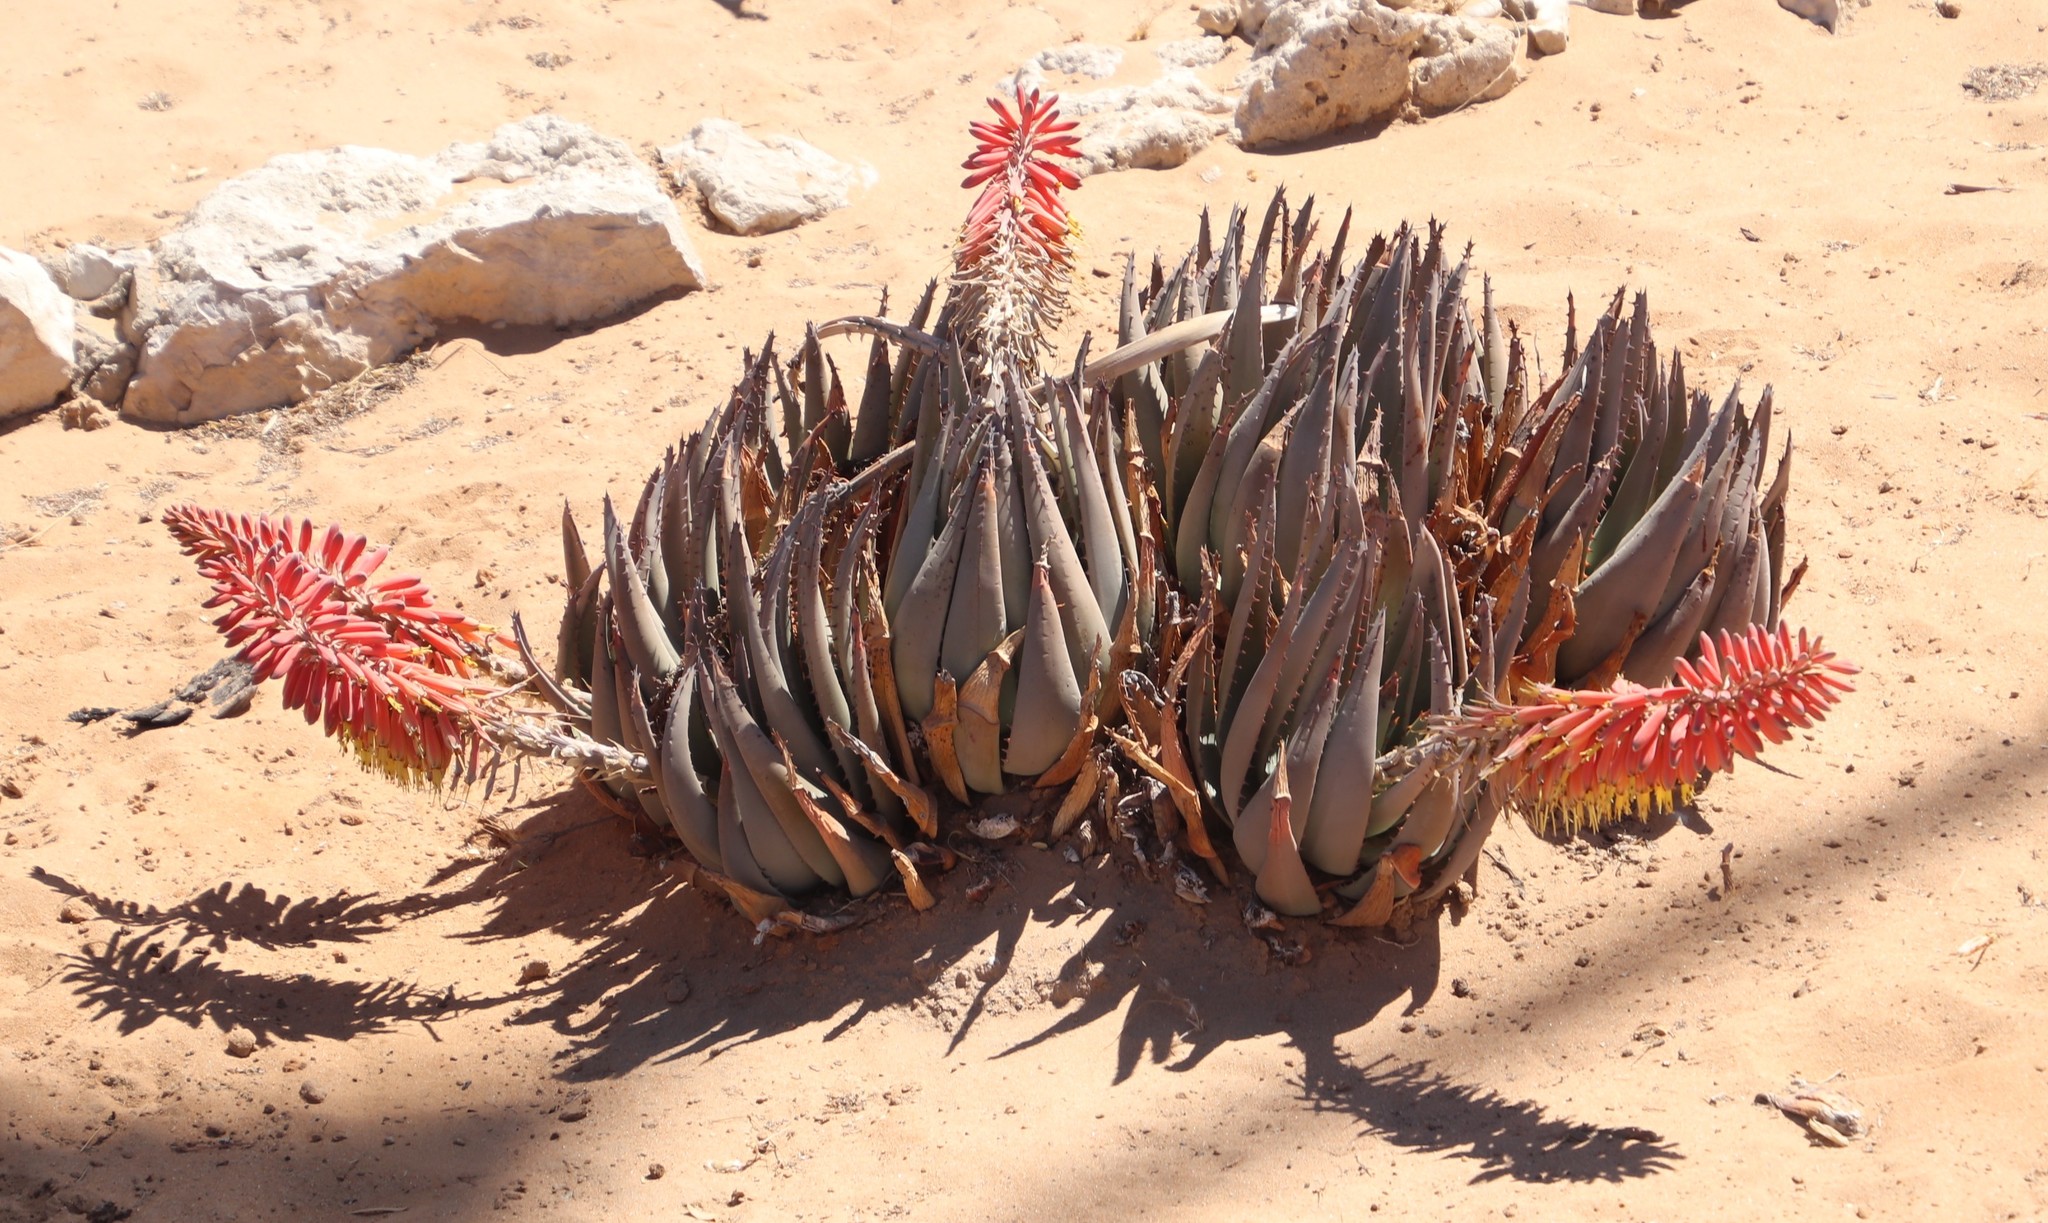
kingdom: Plantae
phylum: Tracheophyta
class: Liliopsida
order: Asparagales
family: Asphodelaceae
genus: Aloe
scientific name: Aloe claviflora
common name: Cannon aloe
